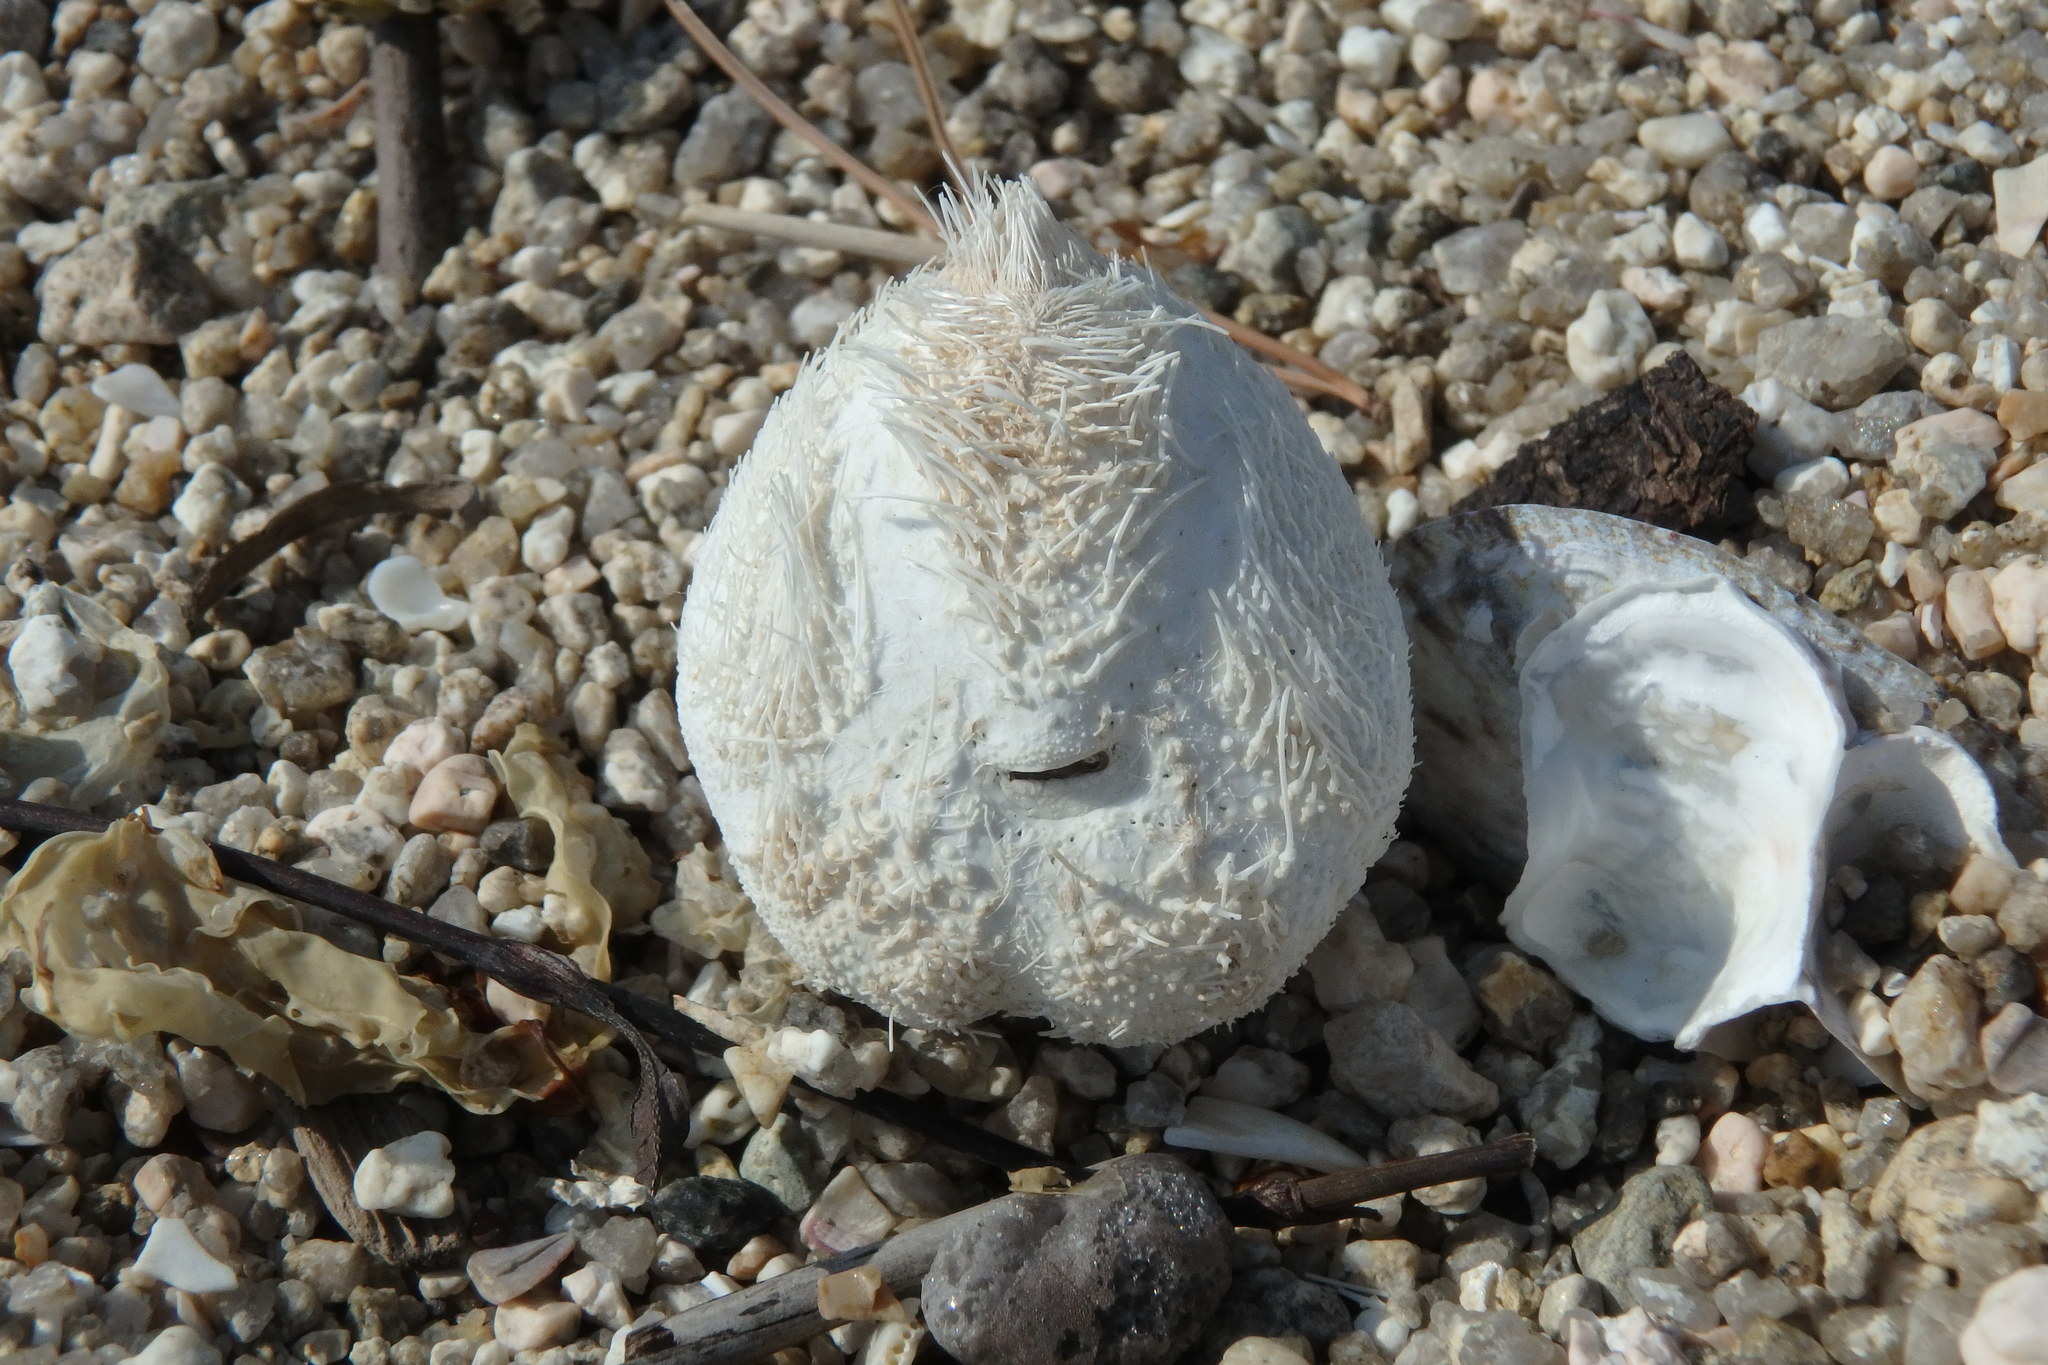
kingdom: Animalia
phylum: Echinodermata
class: Echinoidea
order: Spatangoida
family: Loveniidae
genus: Echinocardium
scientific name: Echinocardium cordatum
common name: Heart-urchin
